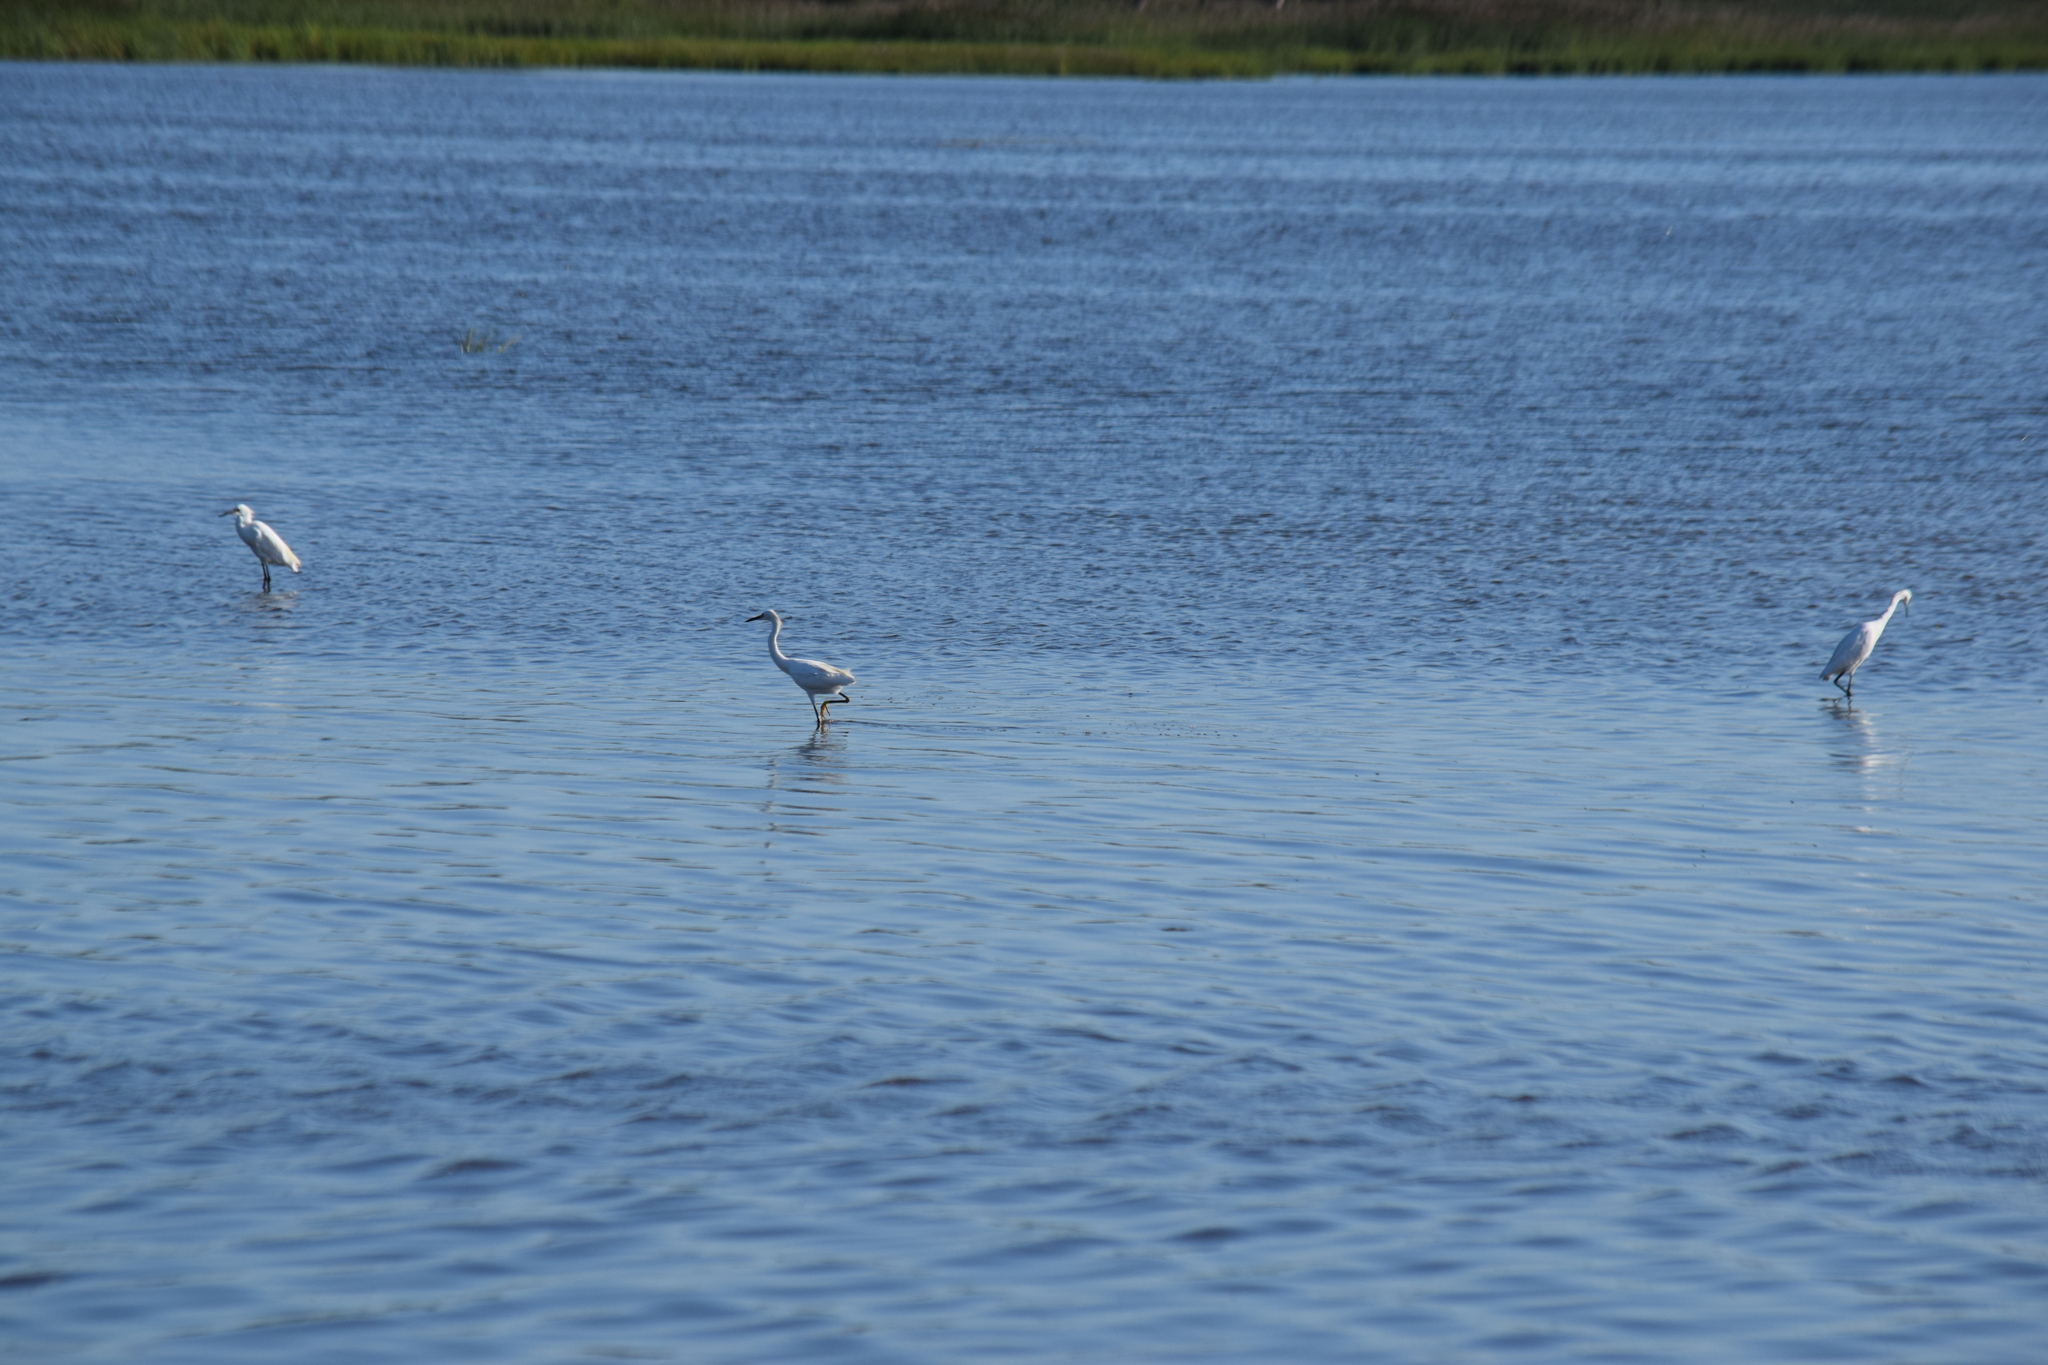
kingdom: Animalia
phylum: Chordata
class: Aves
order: Pelecaniformes
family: Ardeidae
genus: Egretta
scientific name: Egretta thula
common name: Snowy egret
